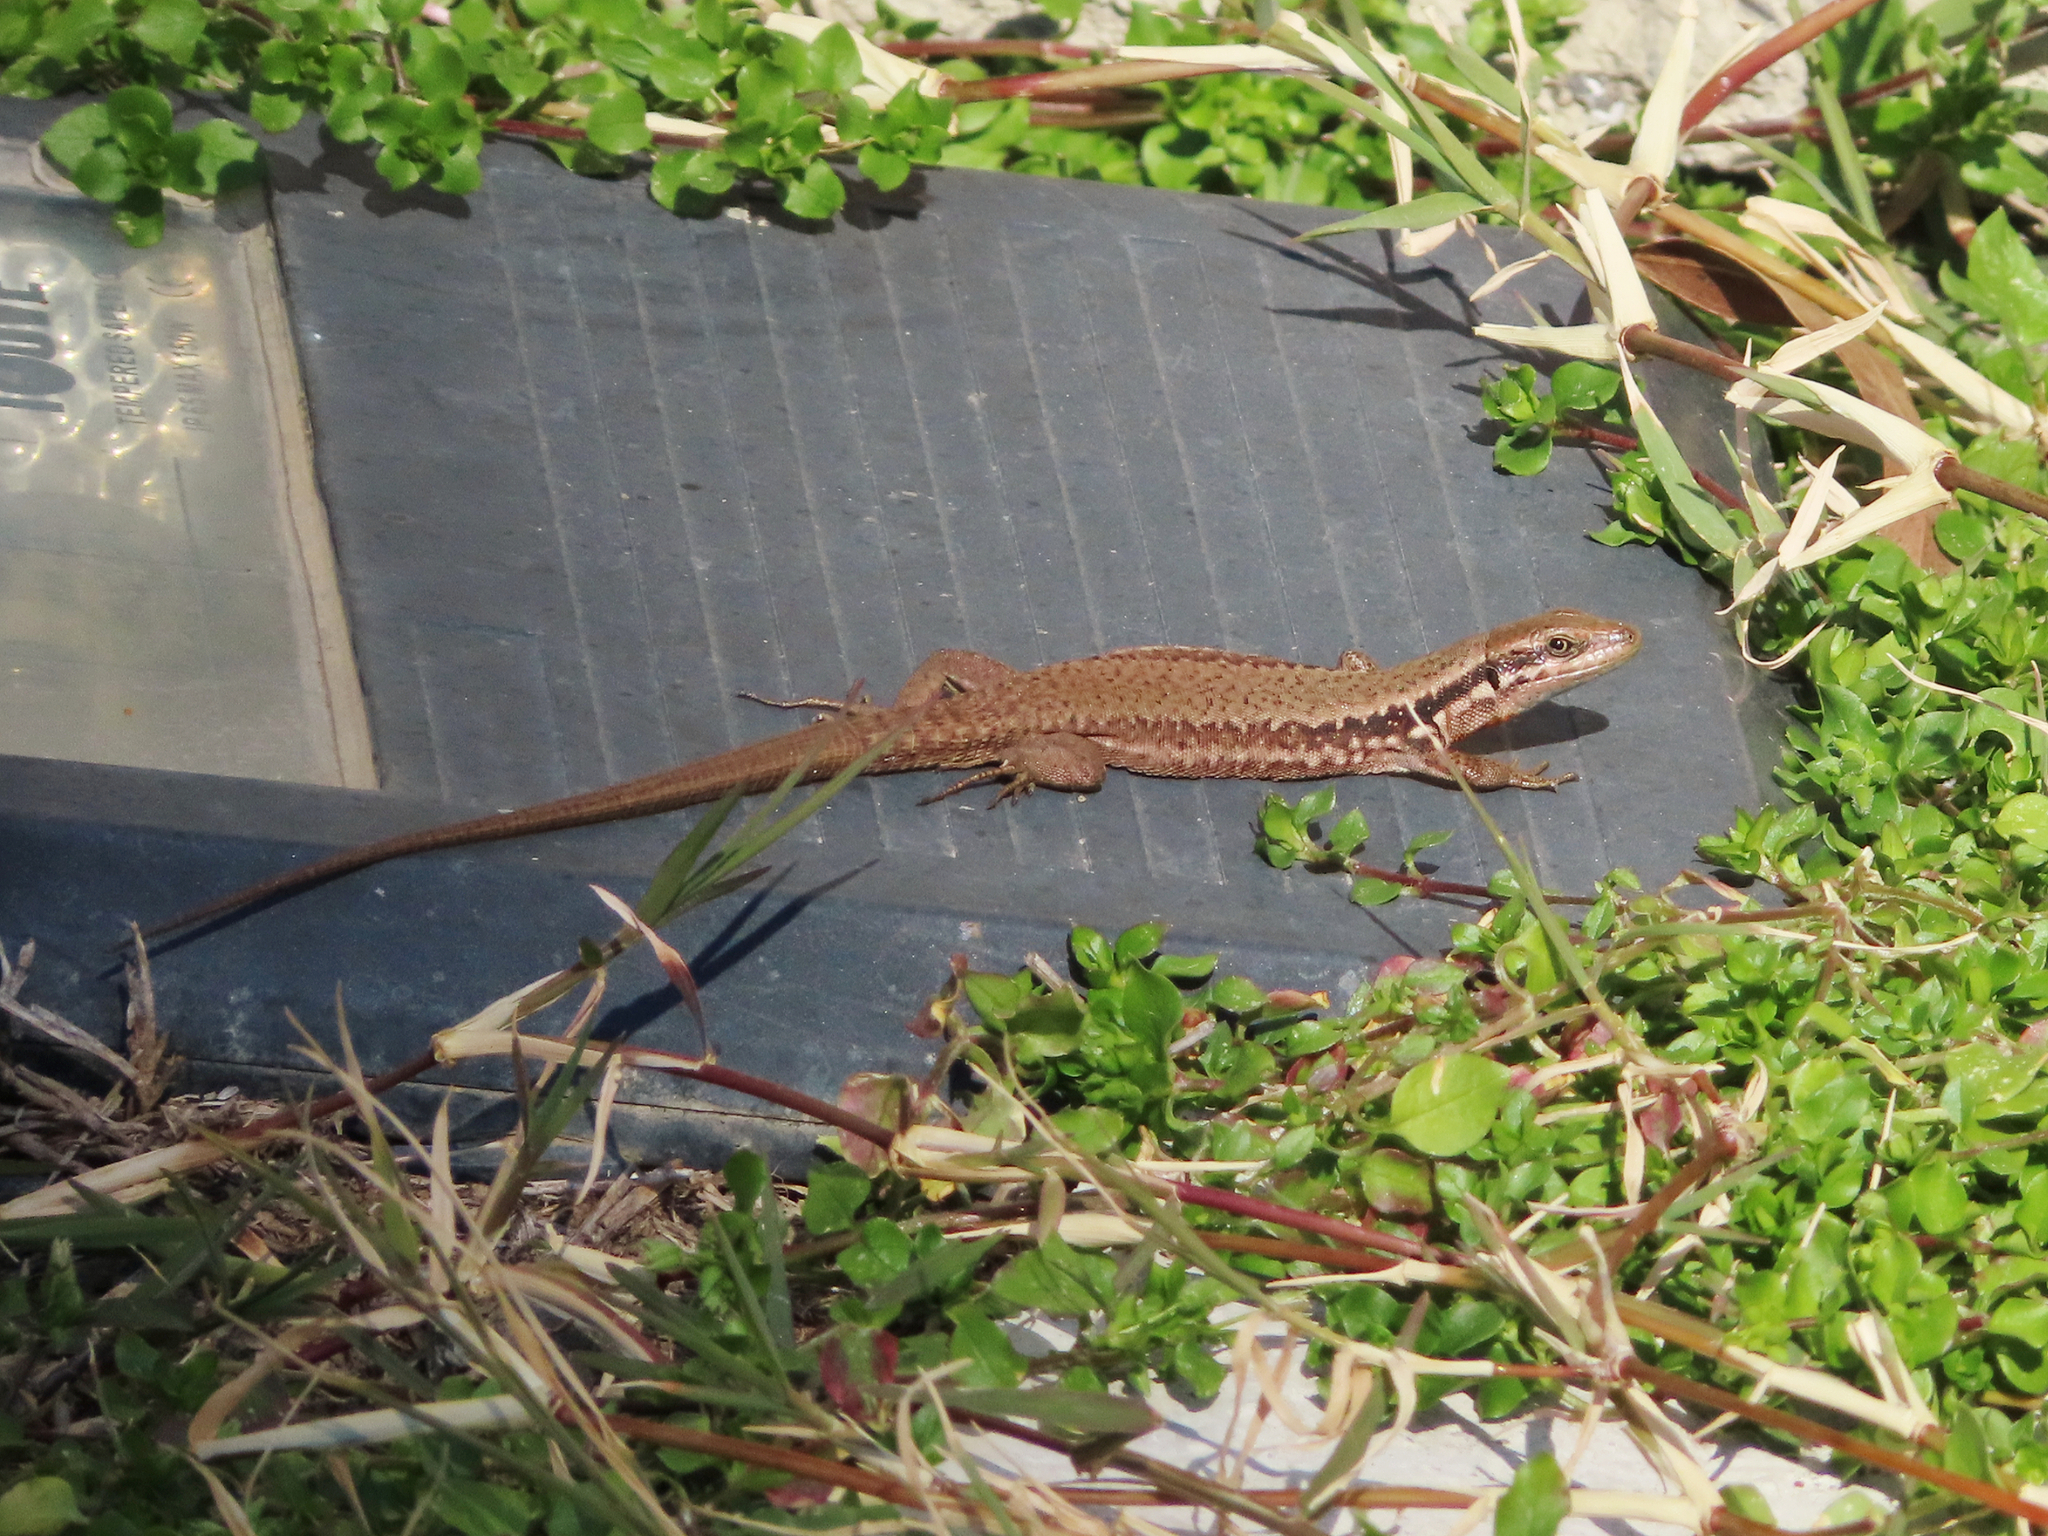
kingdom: Animalia
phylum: Chordata
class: Squamata
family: Lacertidae
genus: Phoenicolacerta
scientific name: Phoenicolacerta laevis
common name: Lebanon lizard
